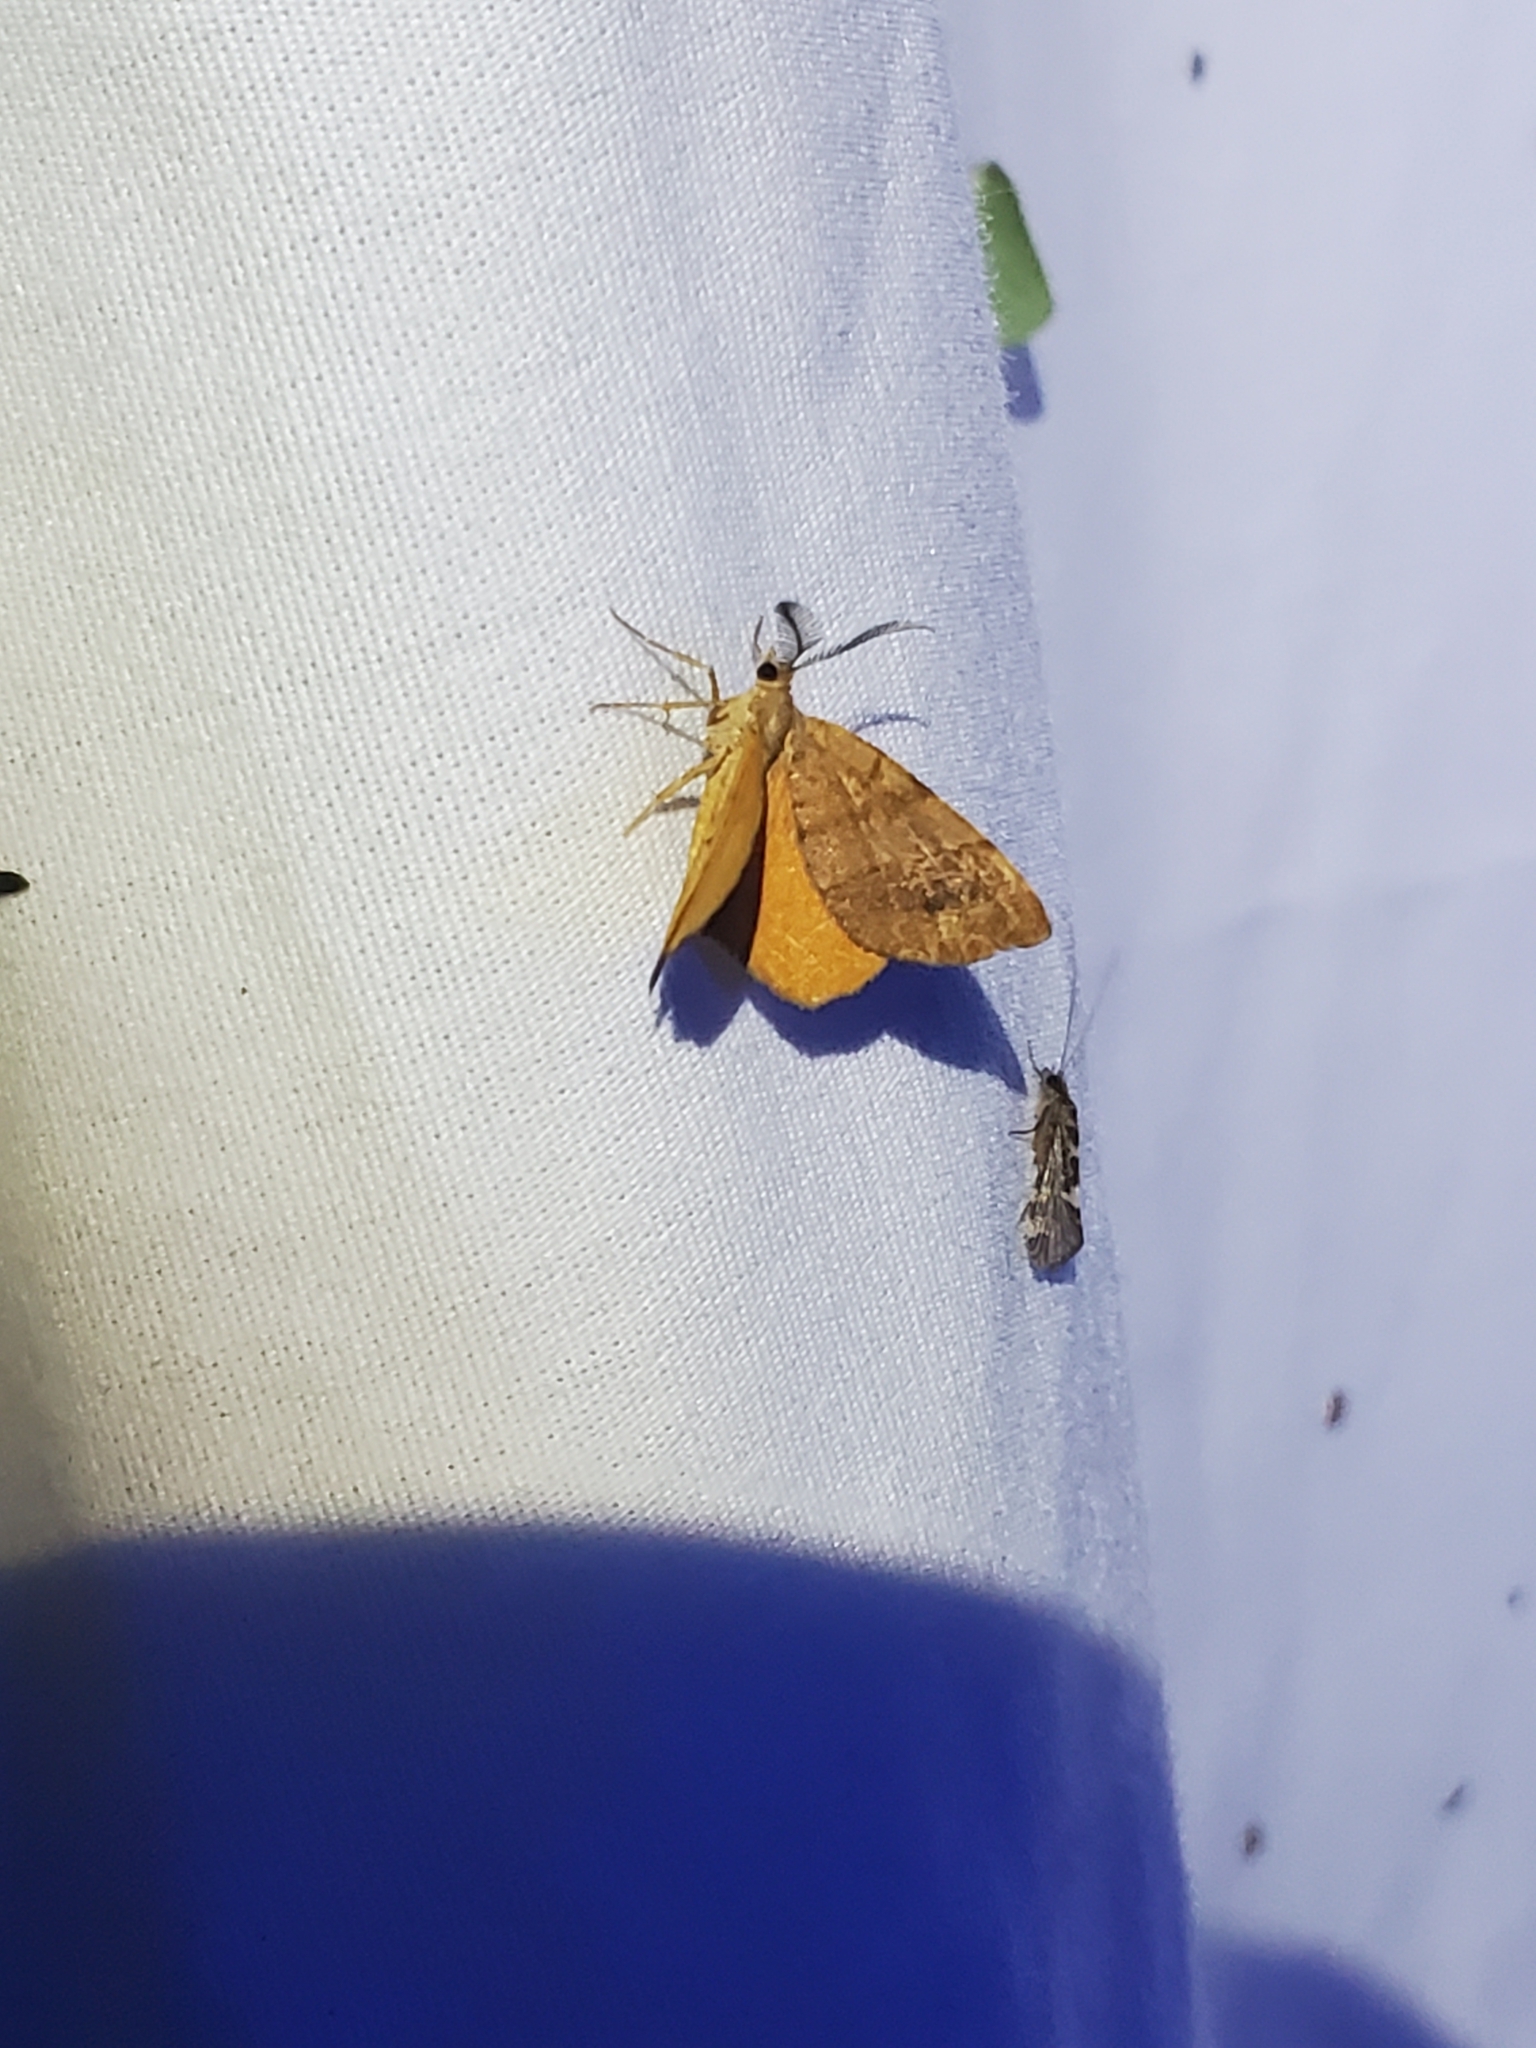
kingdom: Animalia
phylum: Arthropoda
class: Insecta
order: Lepidoptera
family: Geometridae
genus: Mellilla
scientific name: Mellilla xanthometata
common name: Orange wing moth
